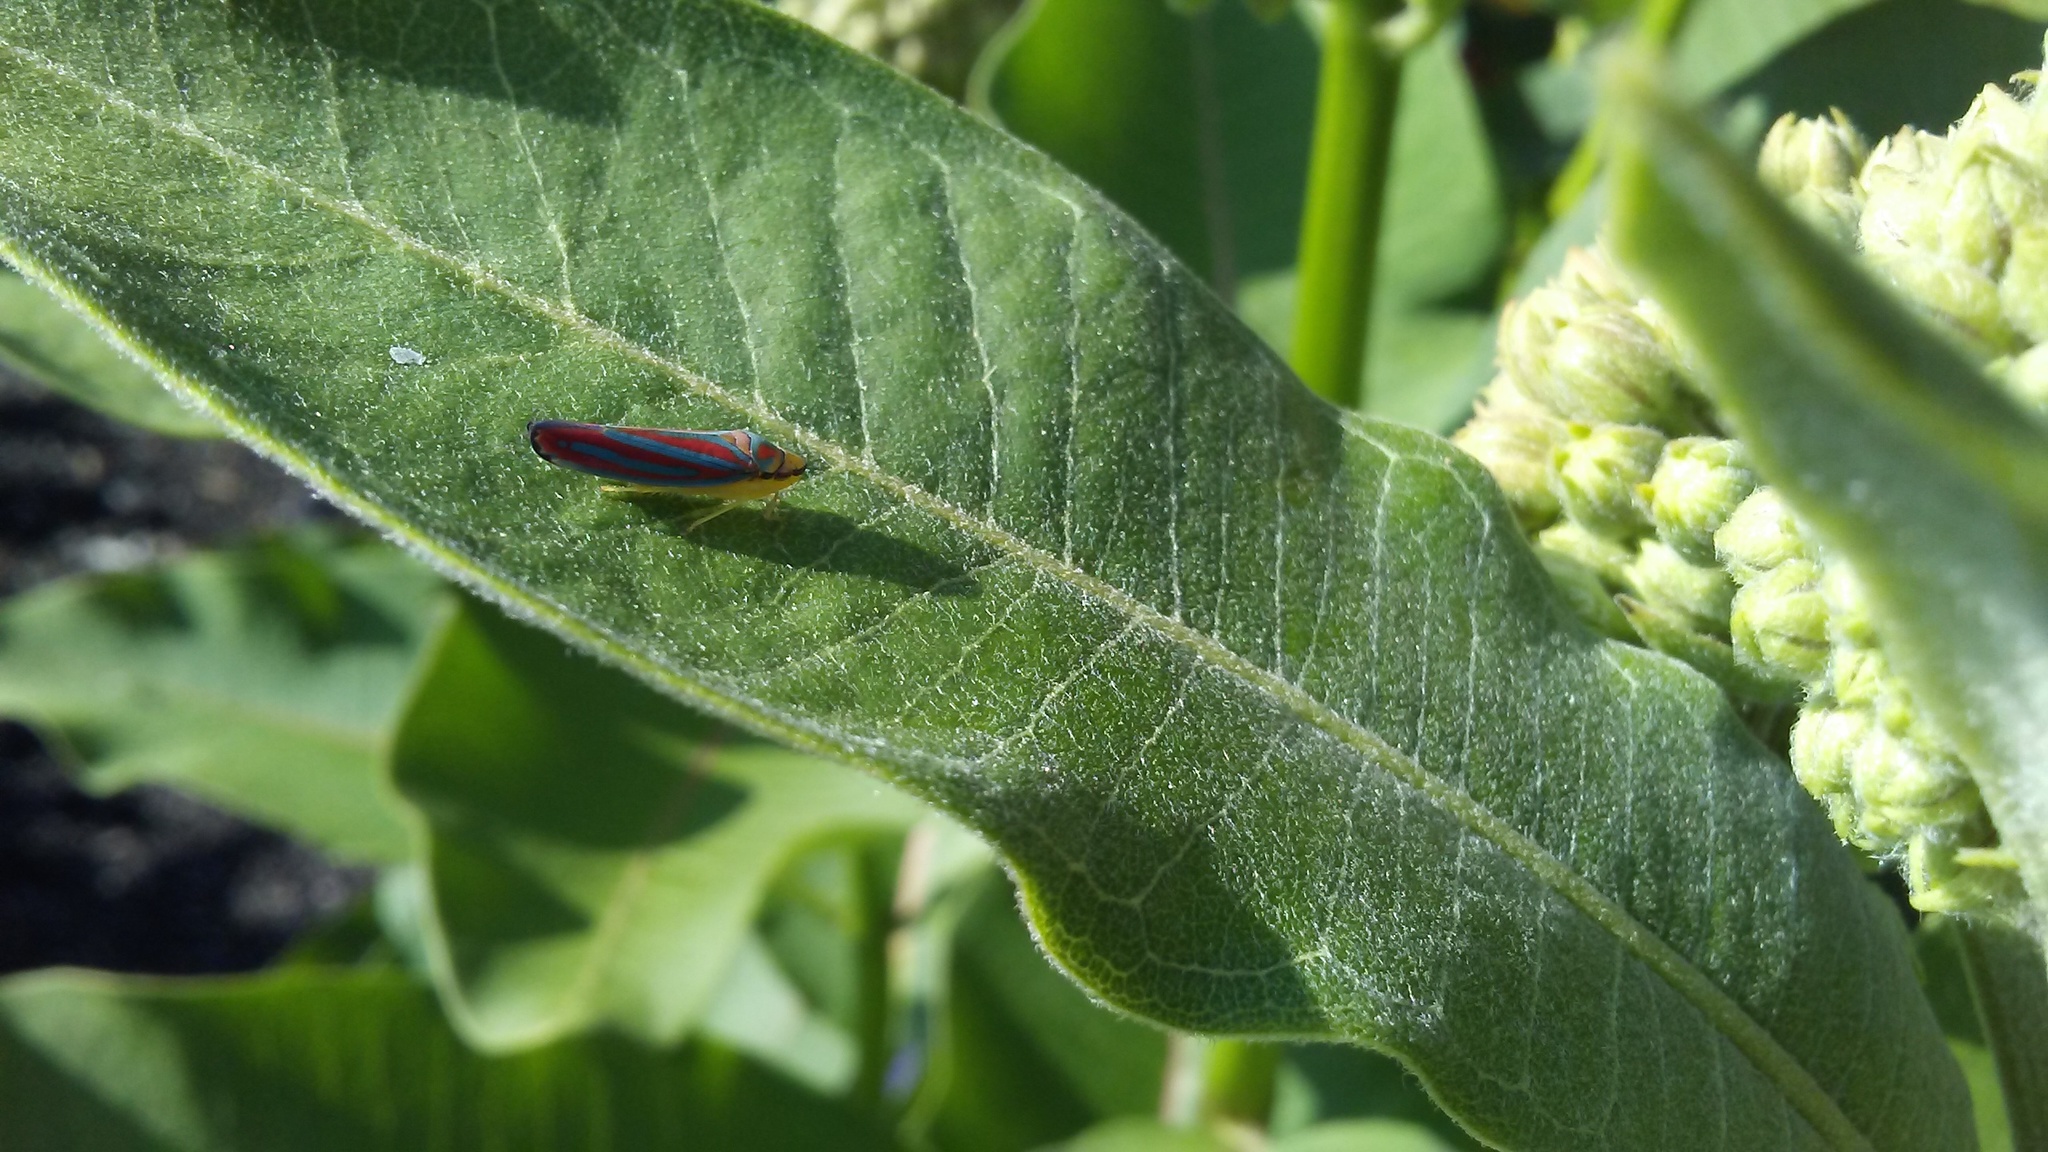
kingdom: Animalia
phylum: Arthropoda
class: Insecta
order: Hemiptera
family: Cicadellidae
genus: Graphocephala
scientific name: Graphocephala coccinea
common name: Candy-striped leafhopper
